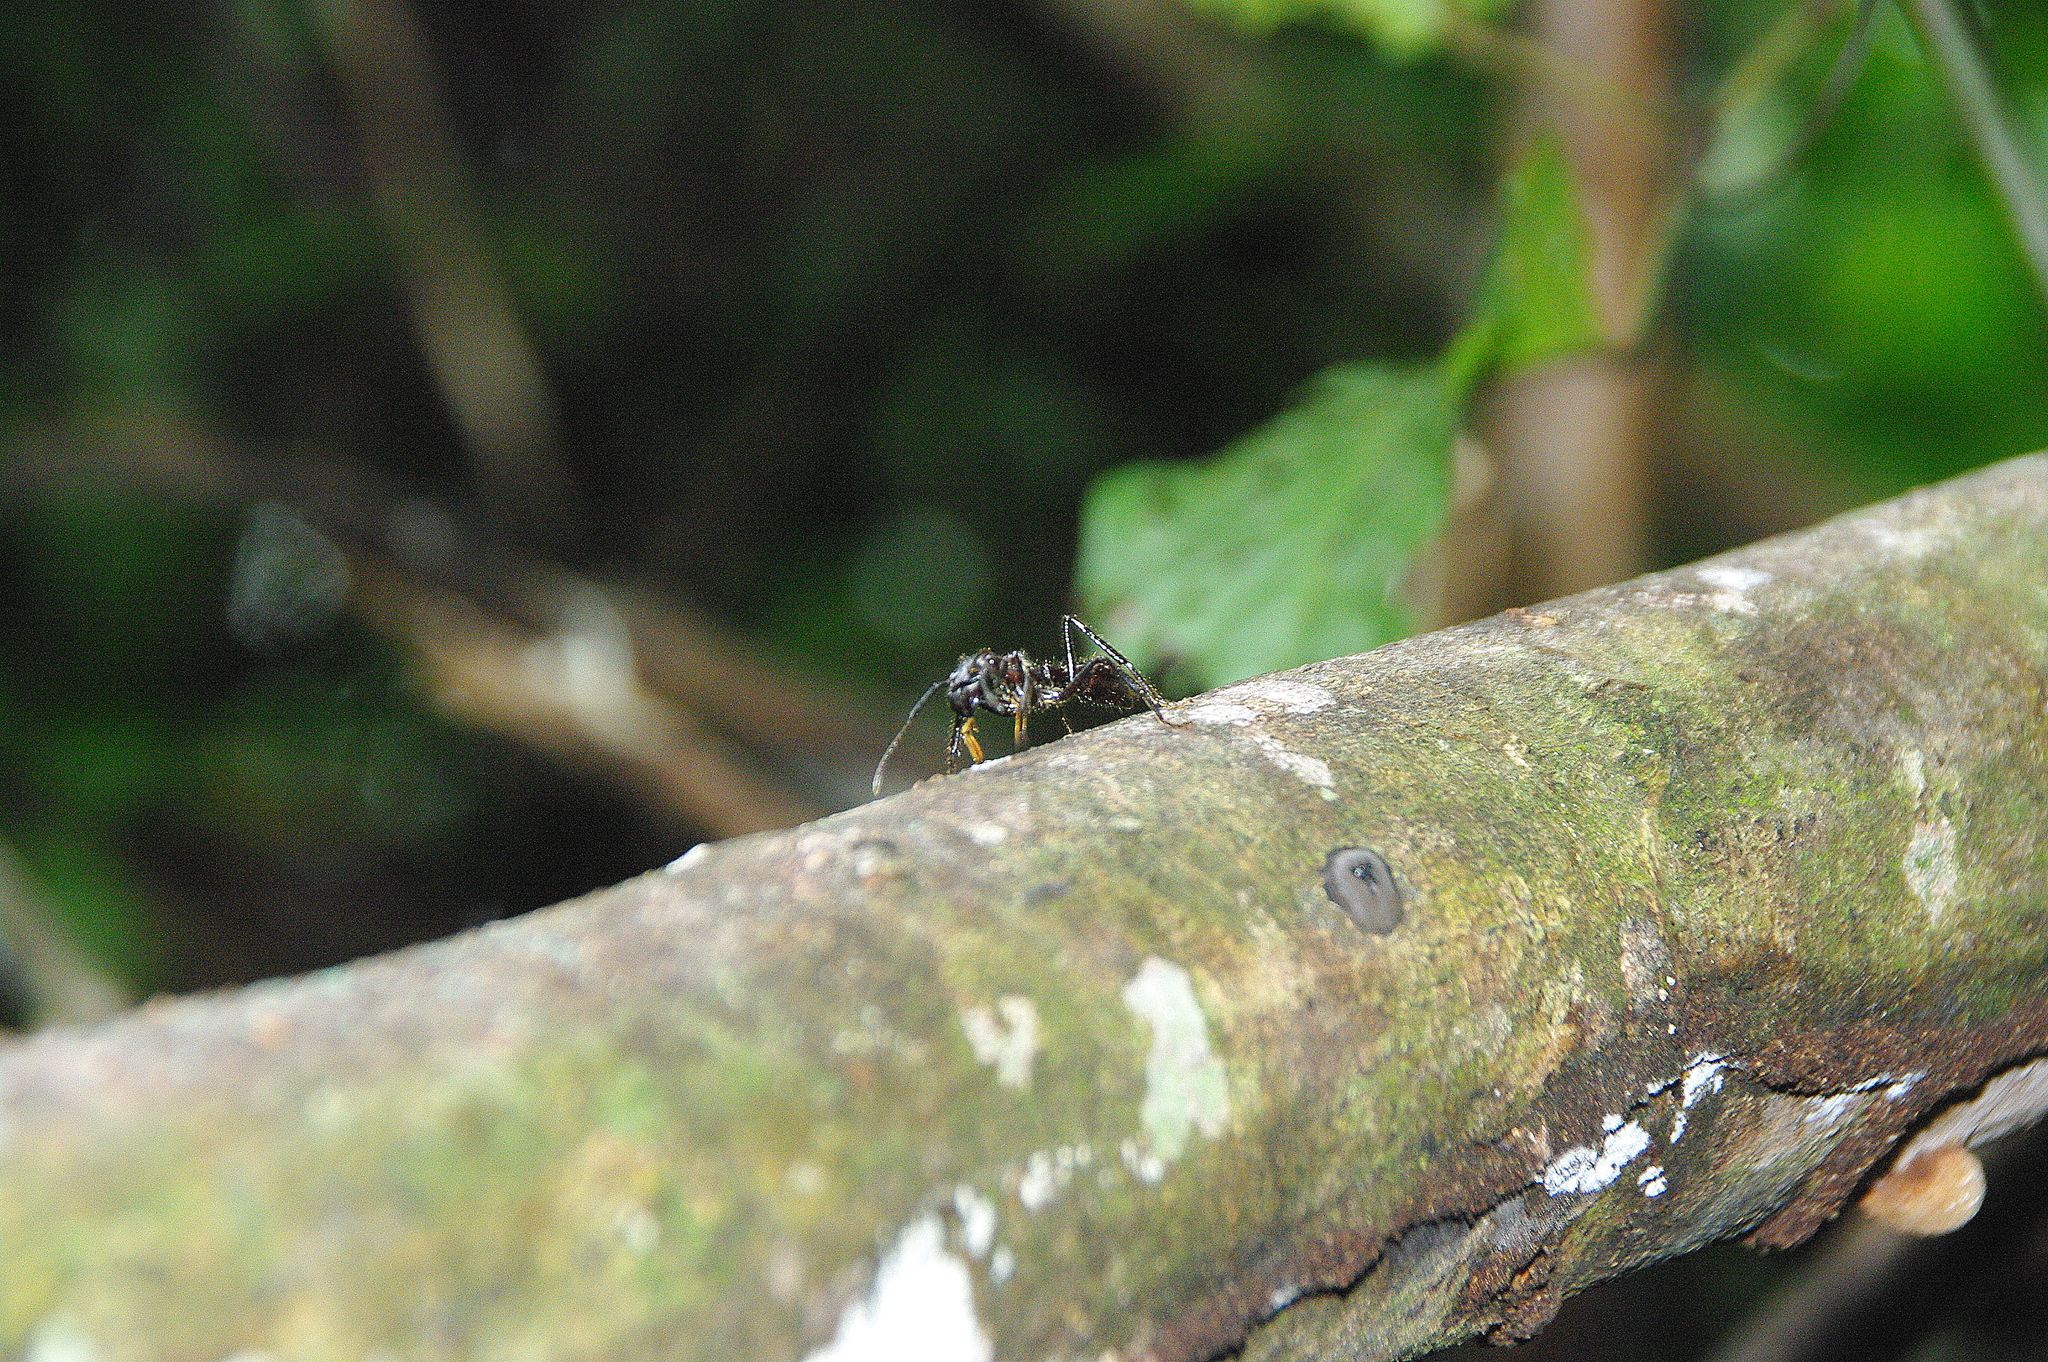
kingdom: Animalia
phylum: Arthropoda
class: Insecta
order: Hymenoptera
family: Formicidae
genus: Paraponera
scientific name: Paraponera clavata
